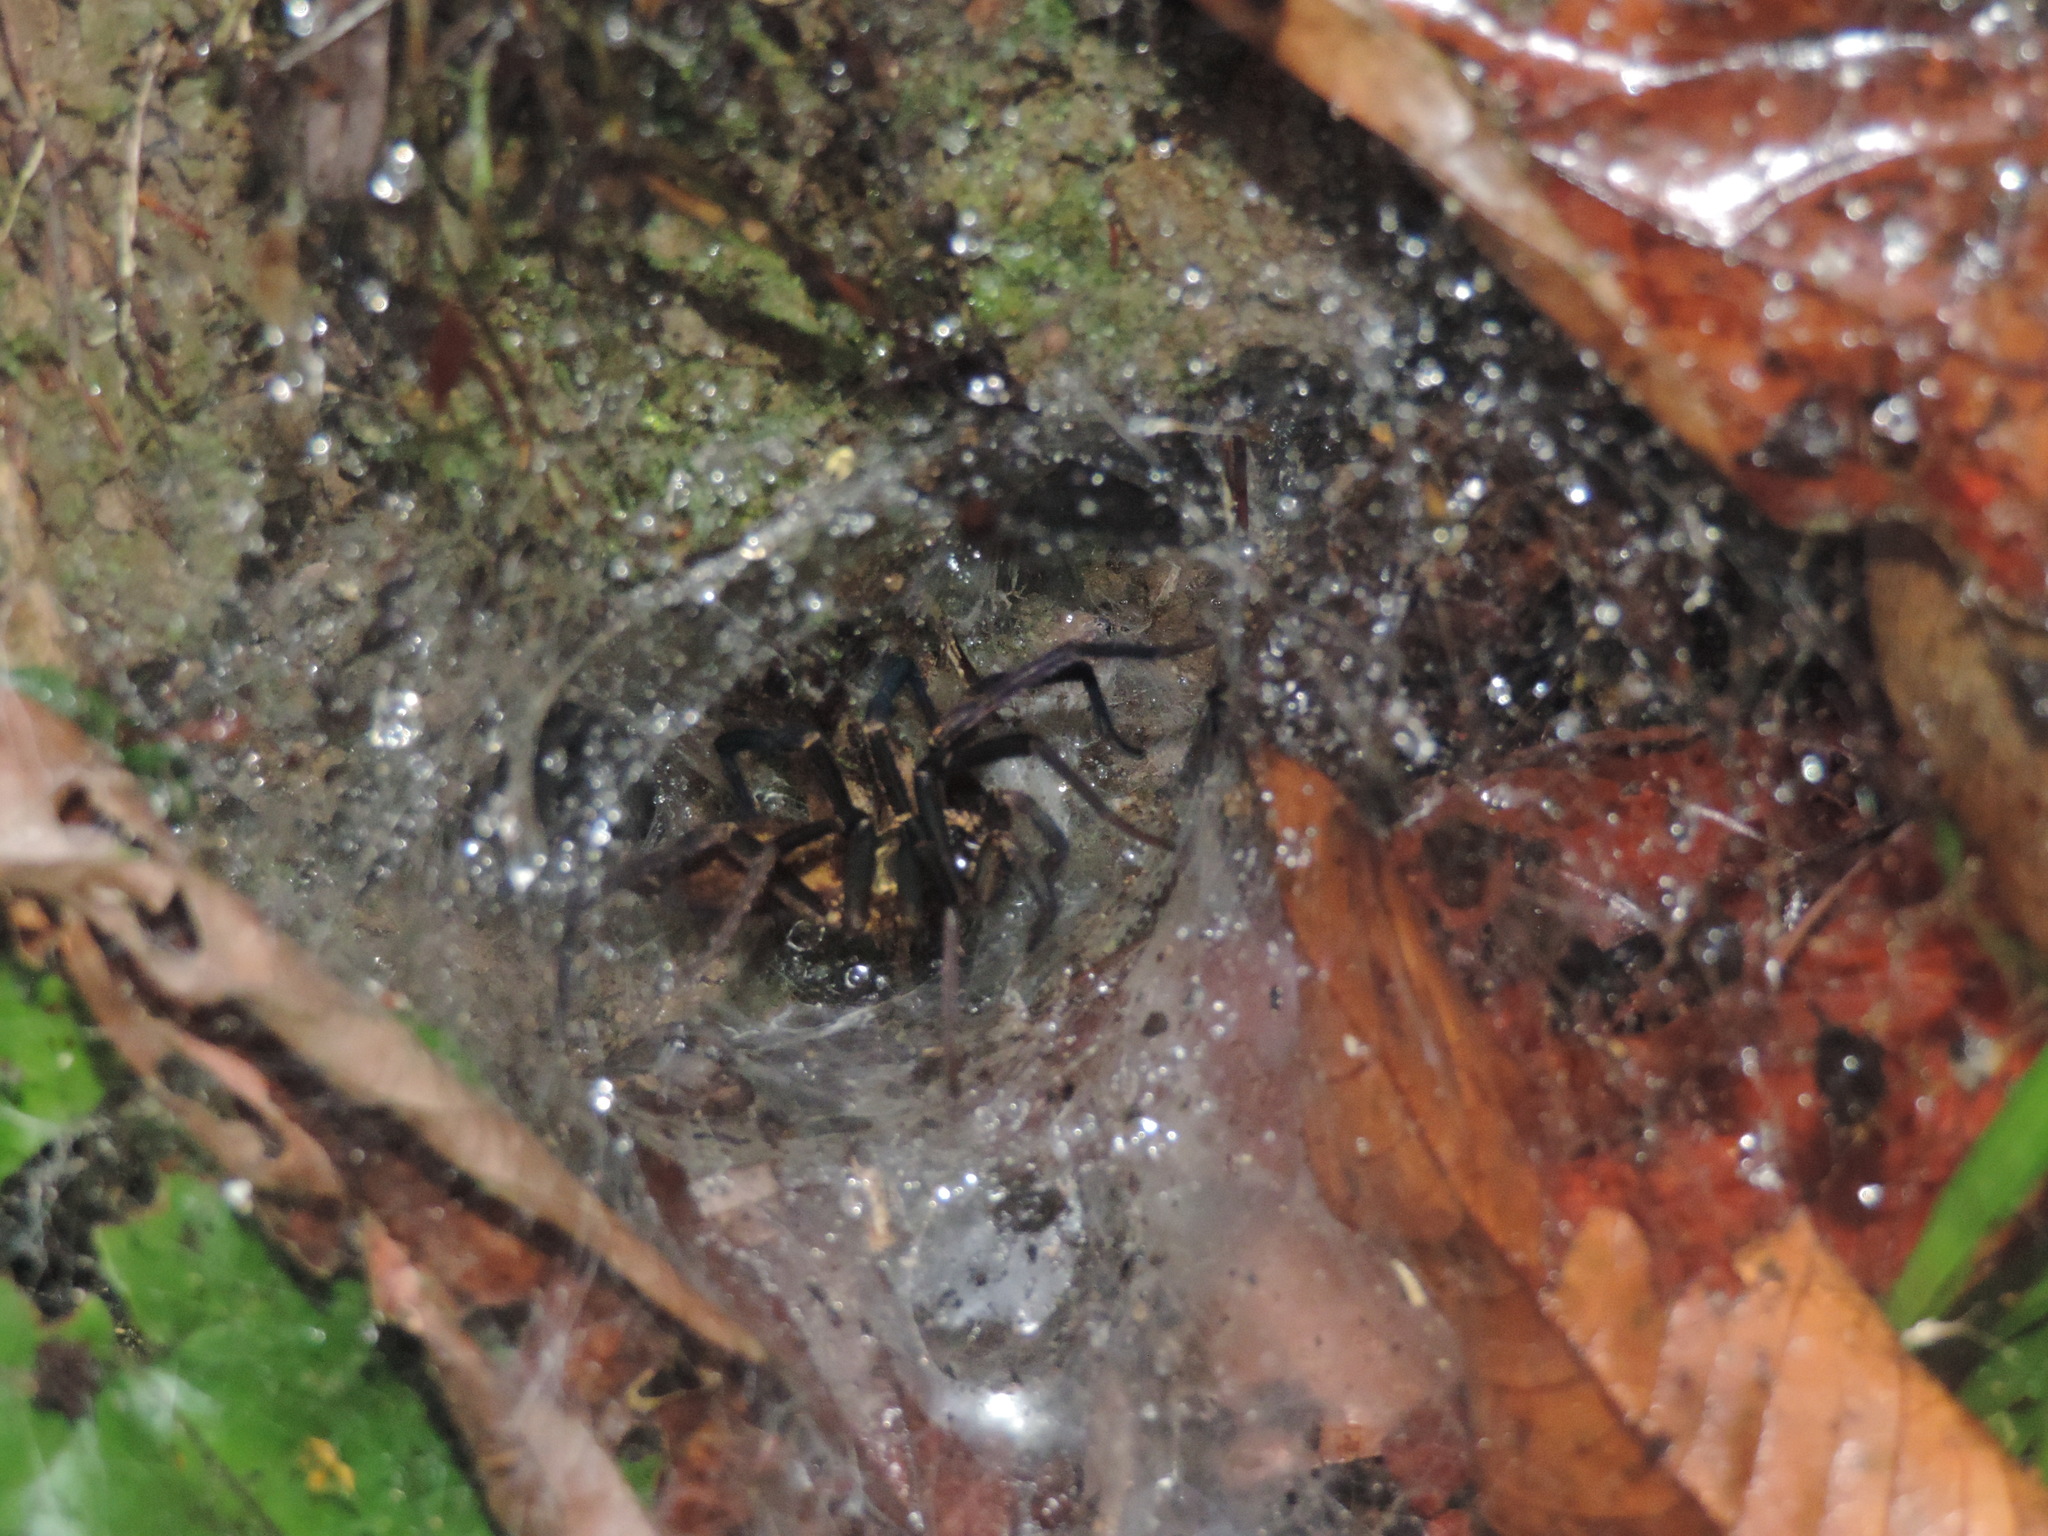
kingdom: Animalia
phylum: Arthropoda
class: Arachnida
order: Araneae
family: Dipluridae
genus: Linothele
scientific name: Linothele sericata
